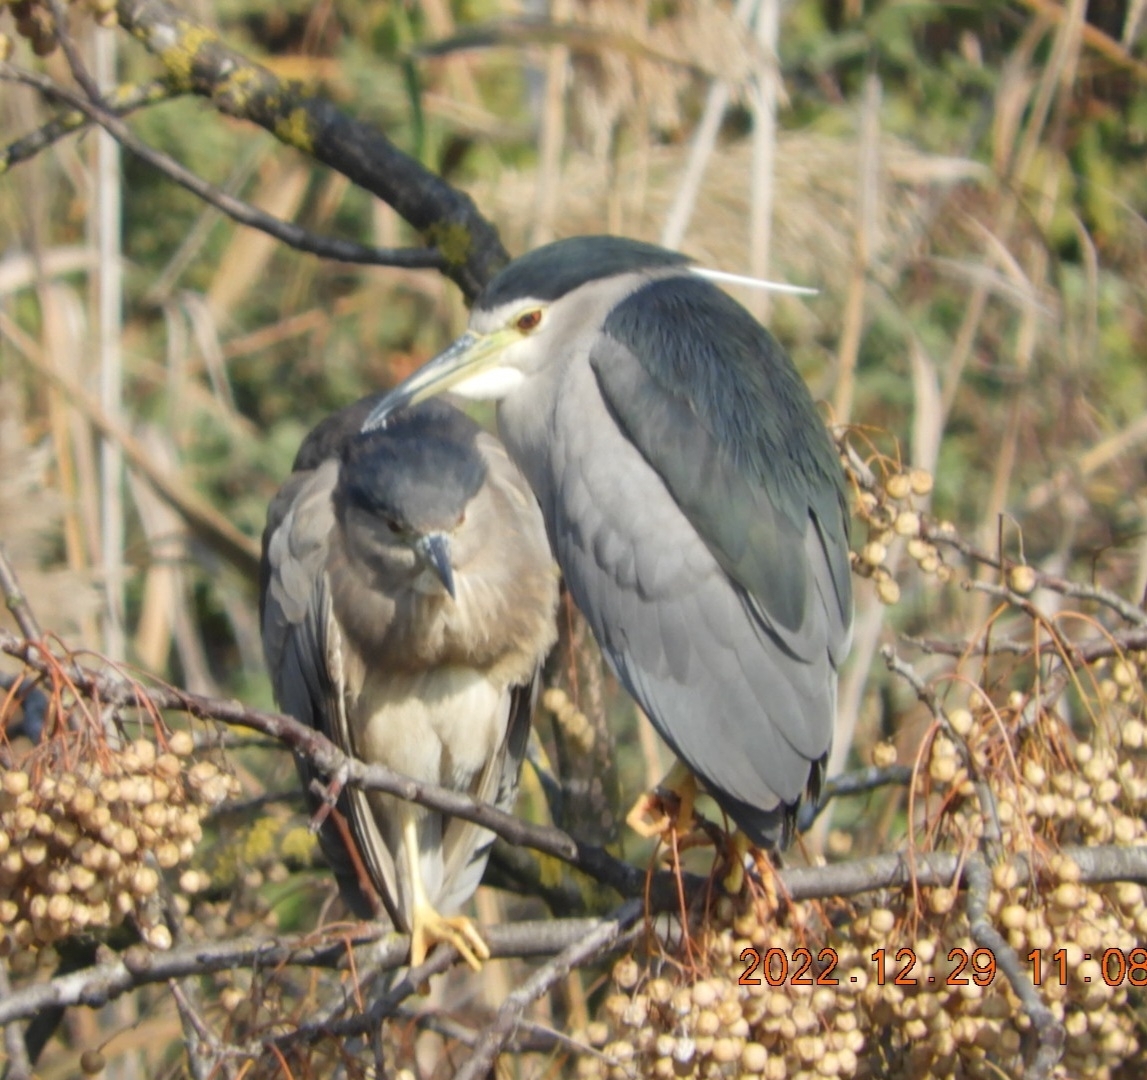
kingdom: Animalia
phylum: Chordata
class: Aves
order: Pelecaniformes
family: Ardeidae
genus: Nycticorax
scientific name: Nycticorax nycticorax
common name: Black-crowned night heron
